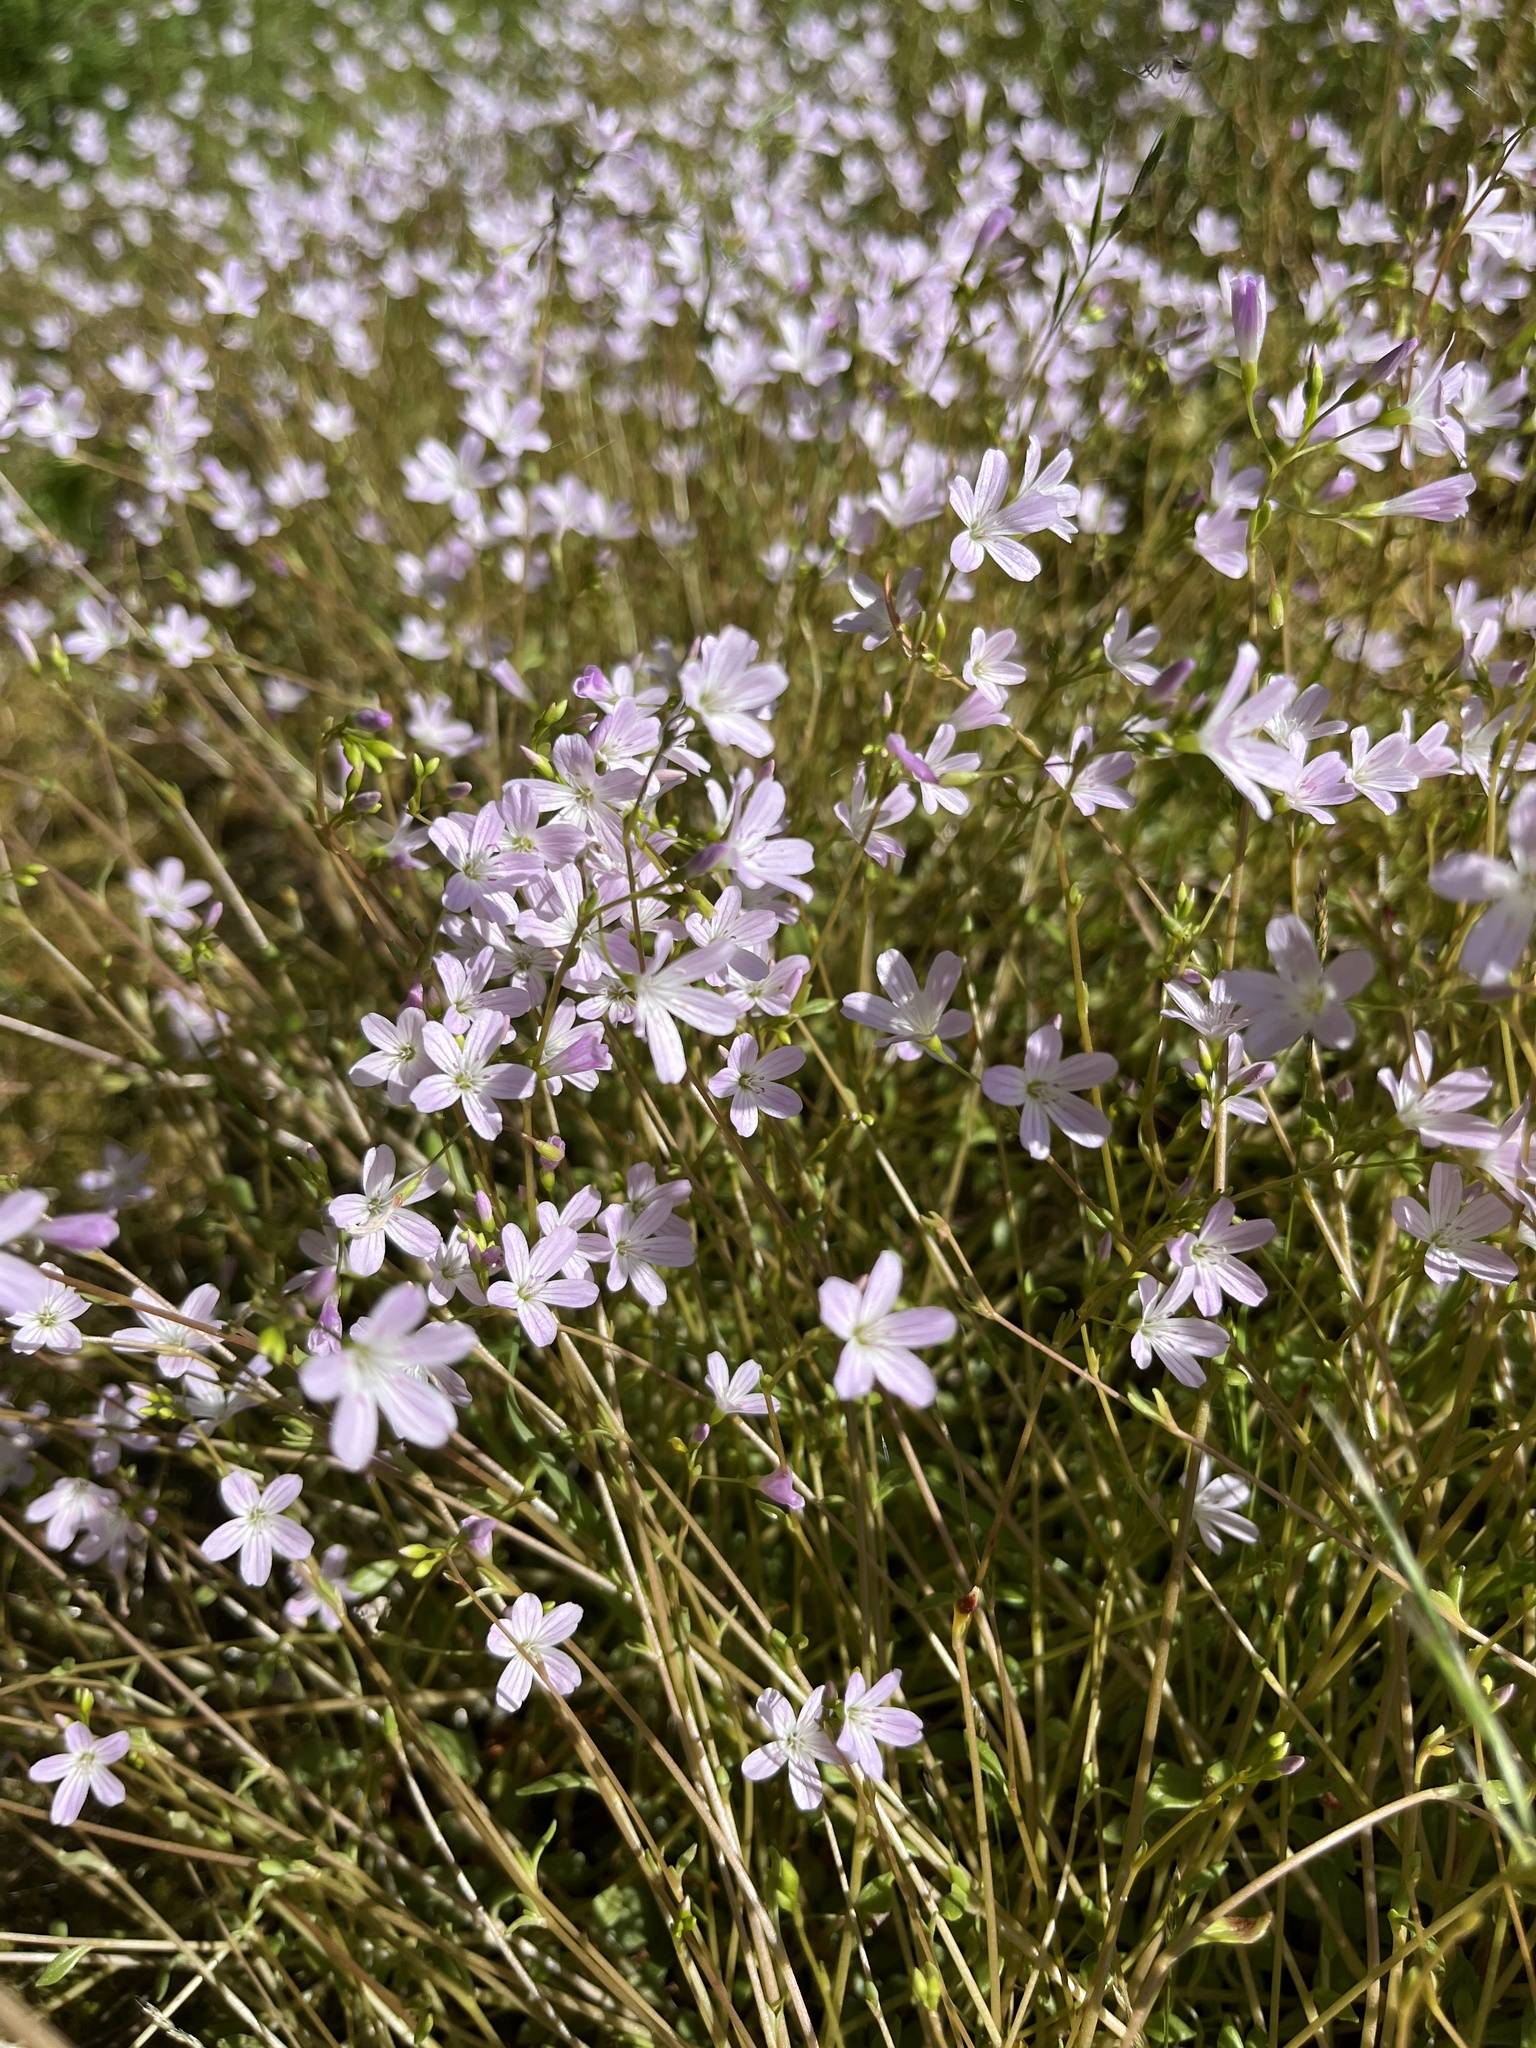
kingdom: Plantae
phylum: Tracheophyta
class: Magnoliopsida
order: Caryophyllales
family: Montiaceae
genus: Montia
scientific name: Montia parvifolia
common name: Small-leaved blinks
